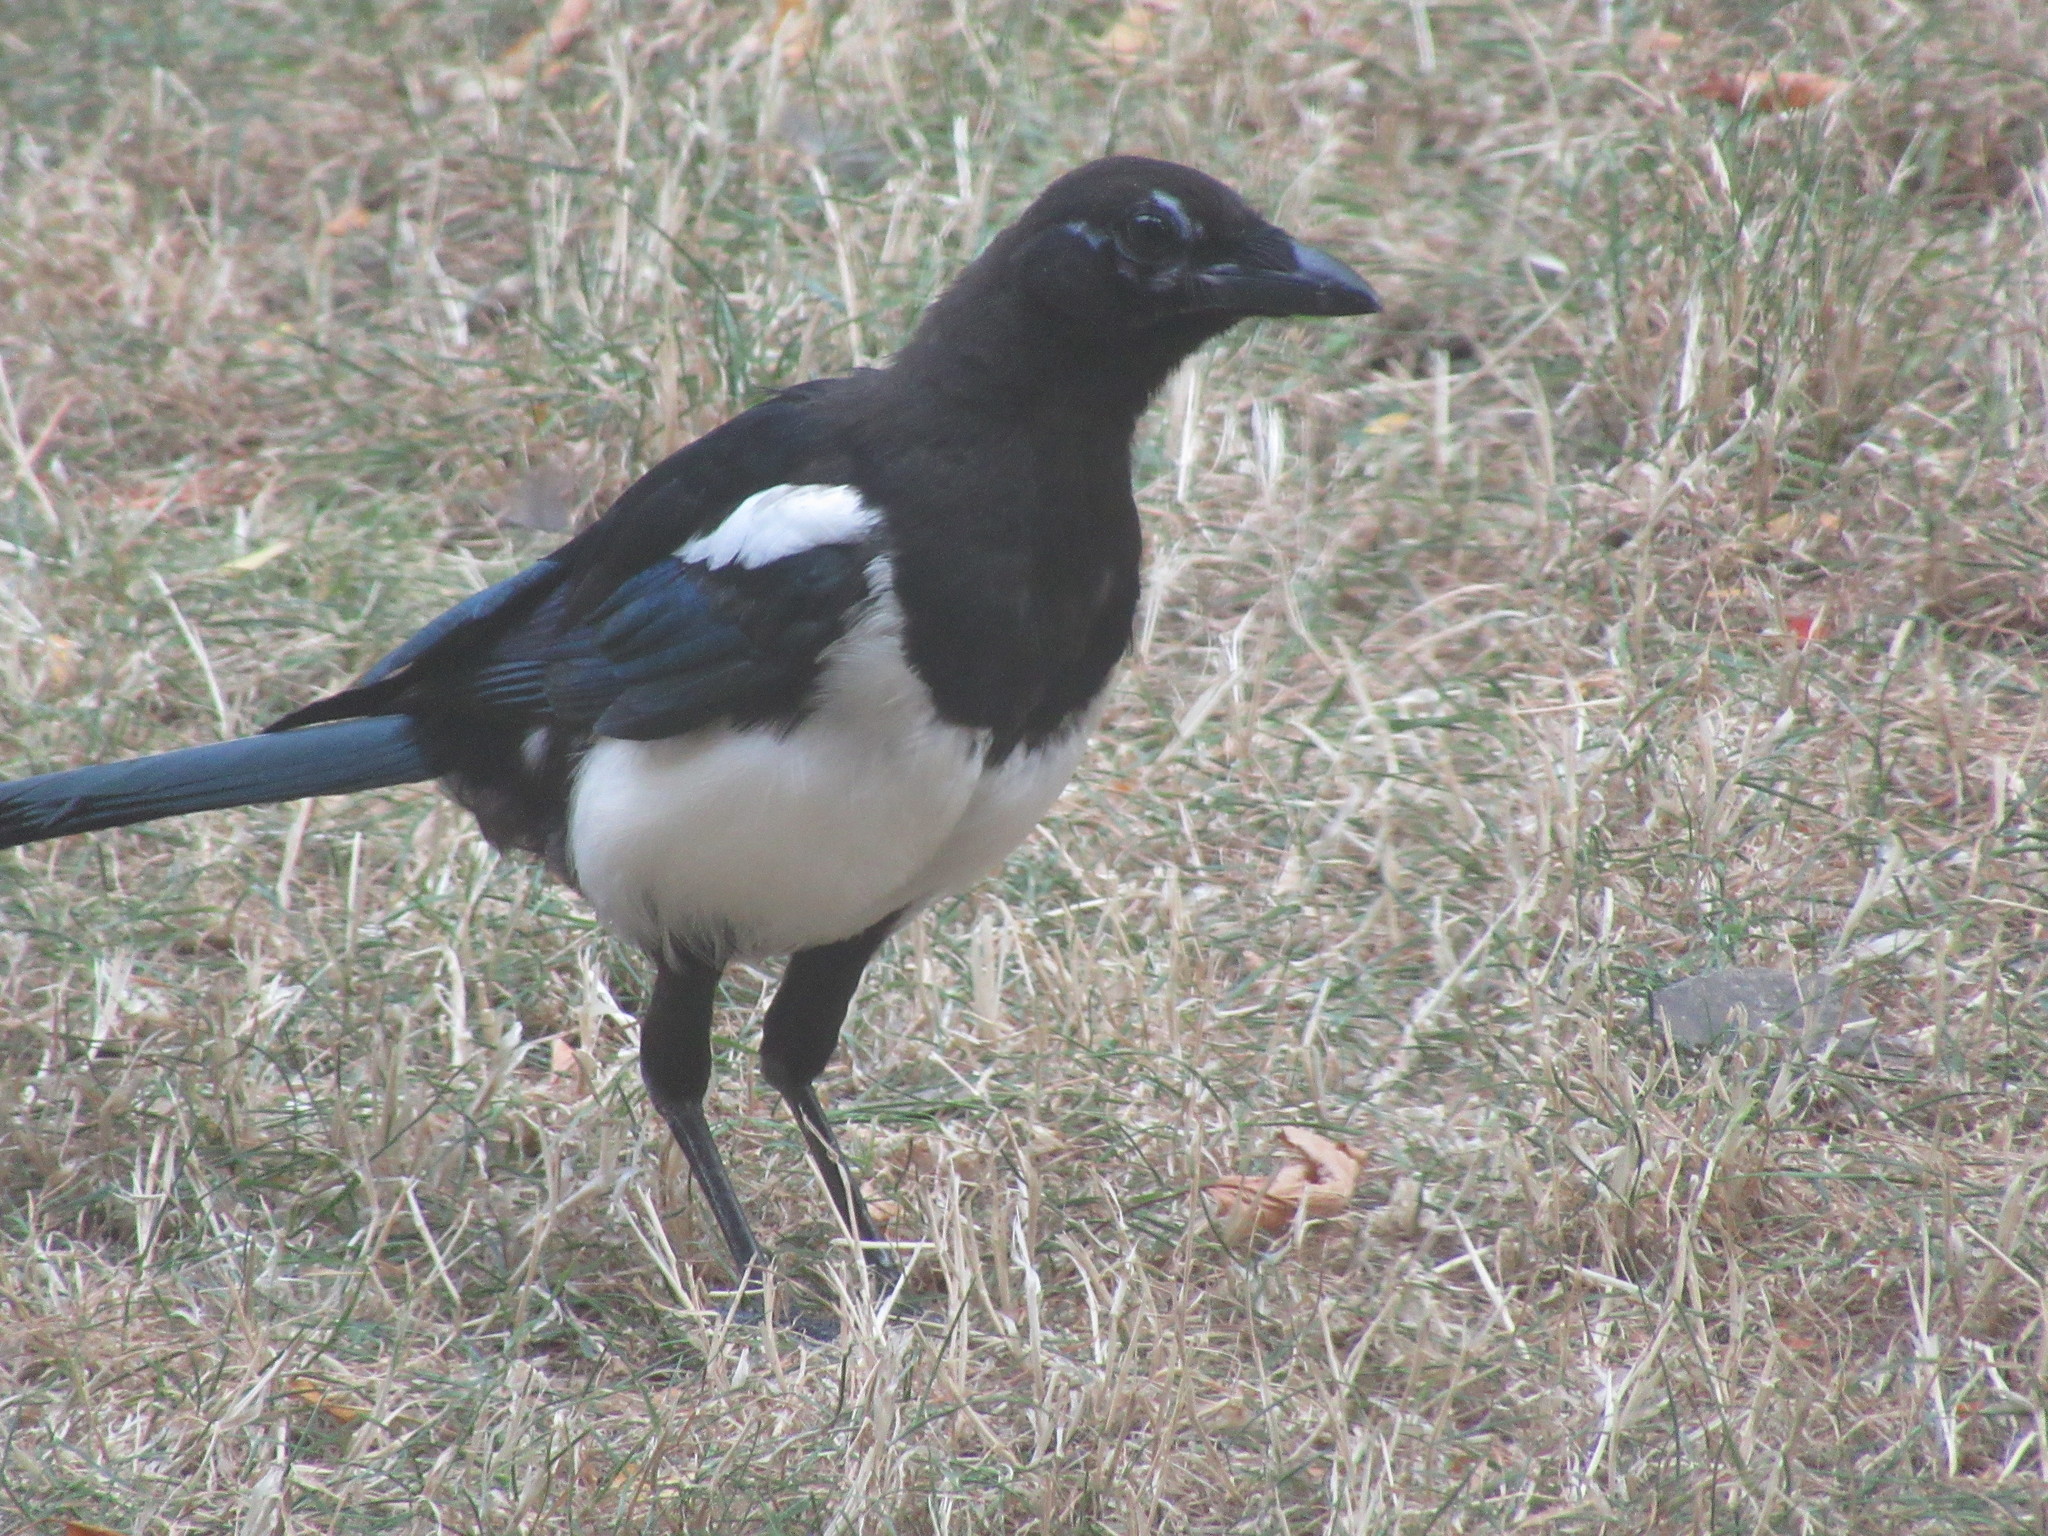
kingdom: Animalia
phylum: Chordata
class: Aves
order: Passeriformes
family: Corvidae
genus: Pica
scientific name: Pica pica
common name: Eurasian magpie
